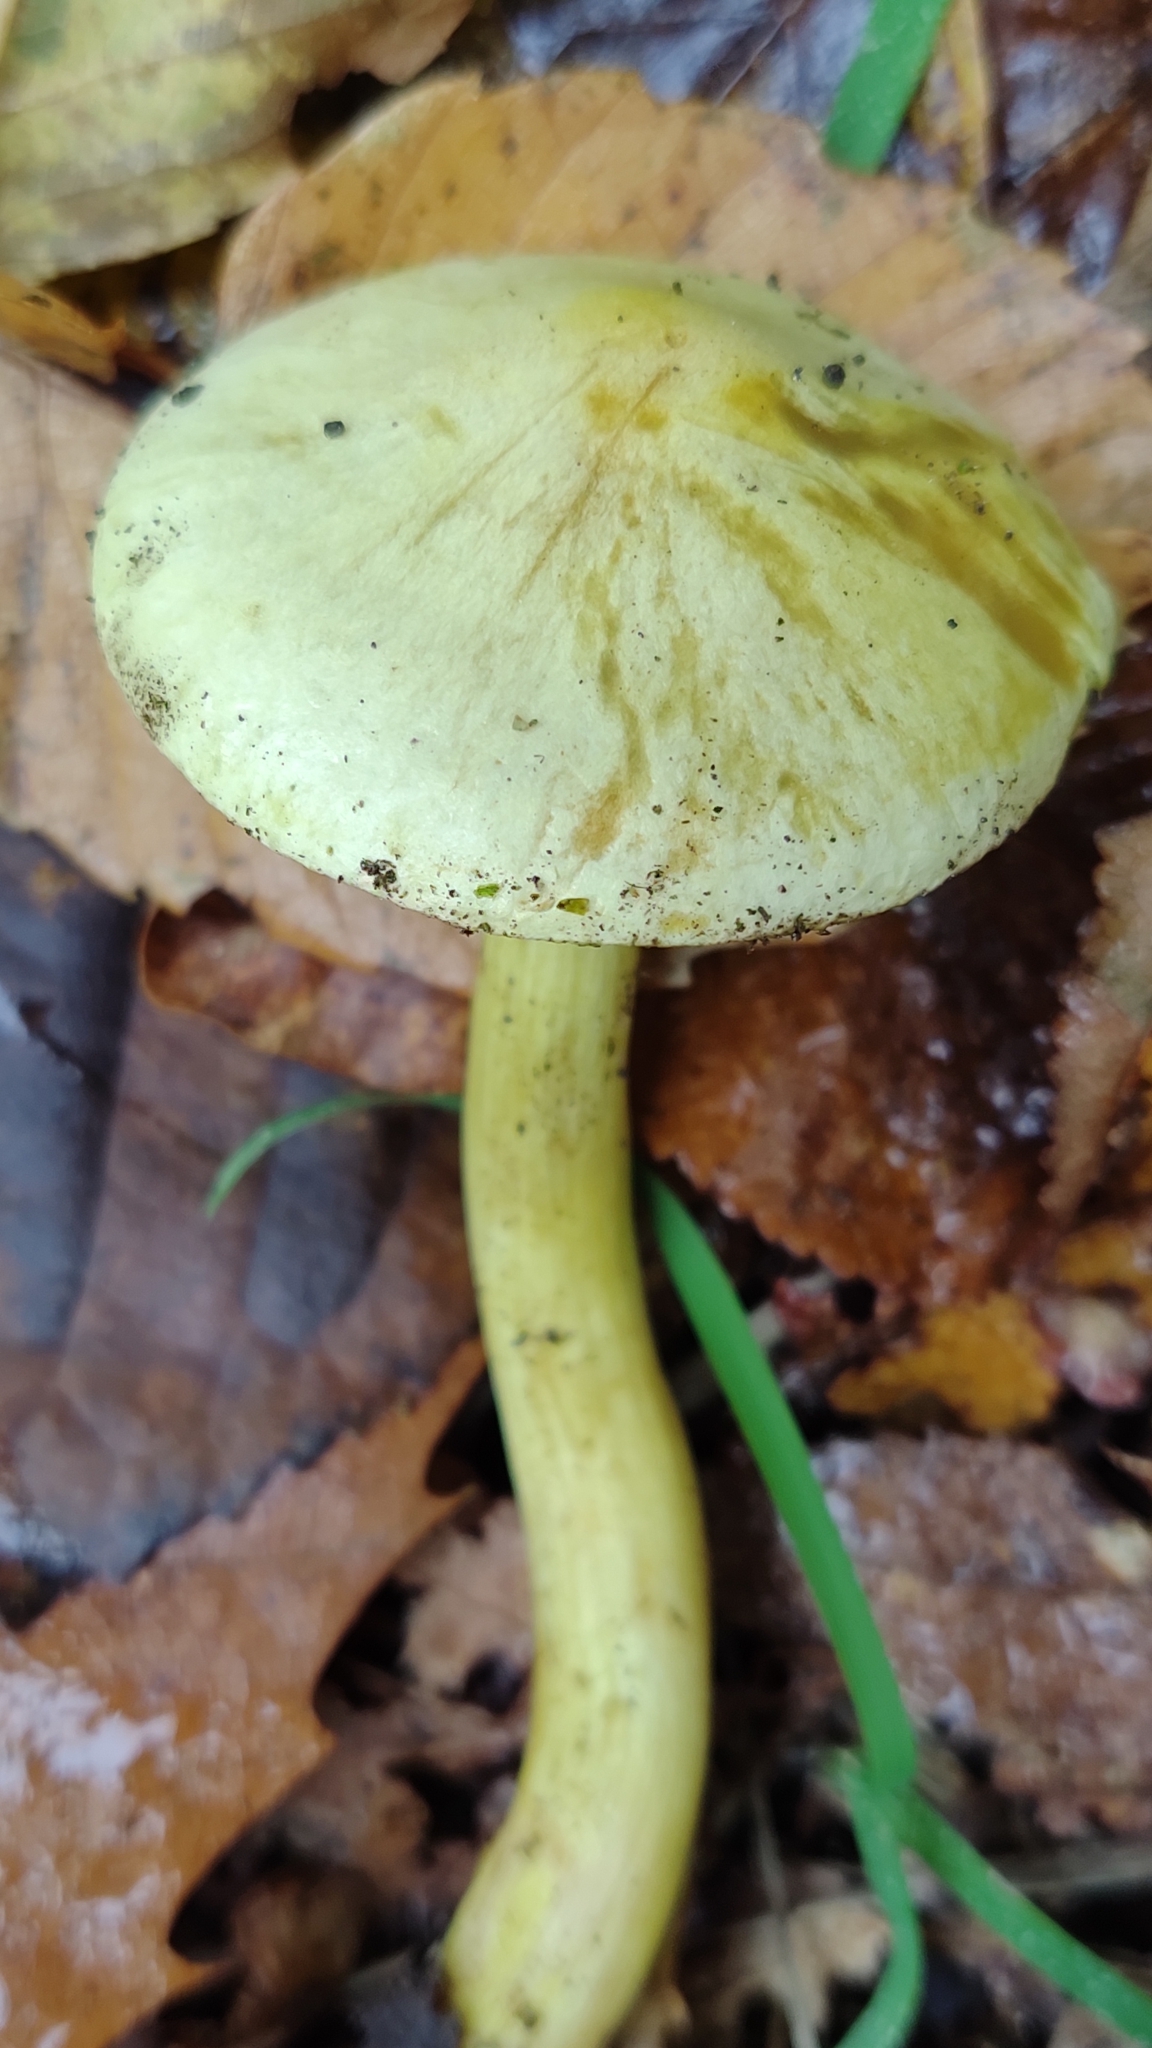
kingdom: Fungi
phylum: Basidiomycota
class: Agaricomycetes
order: Agaricales
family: Tricholomataceae
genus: Tricholoma
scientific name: Tricholoma sulphureum
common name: Stinky knight
